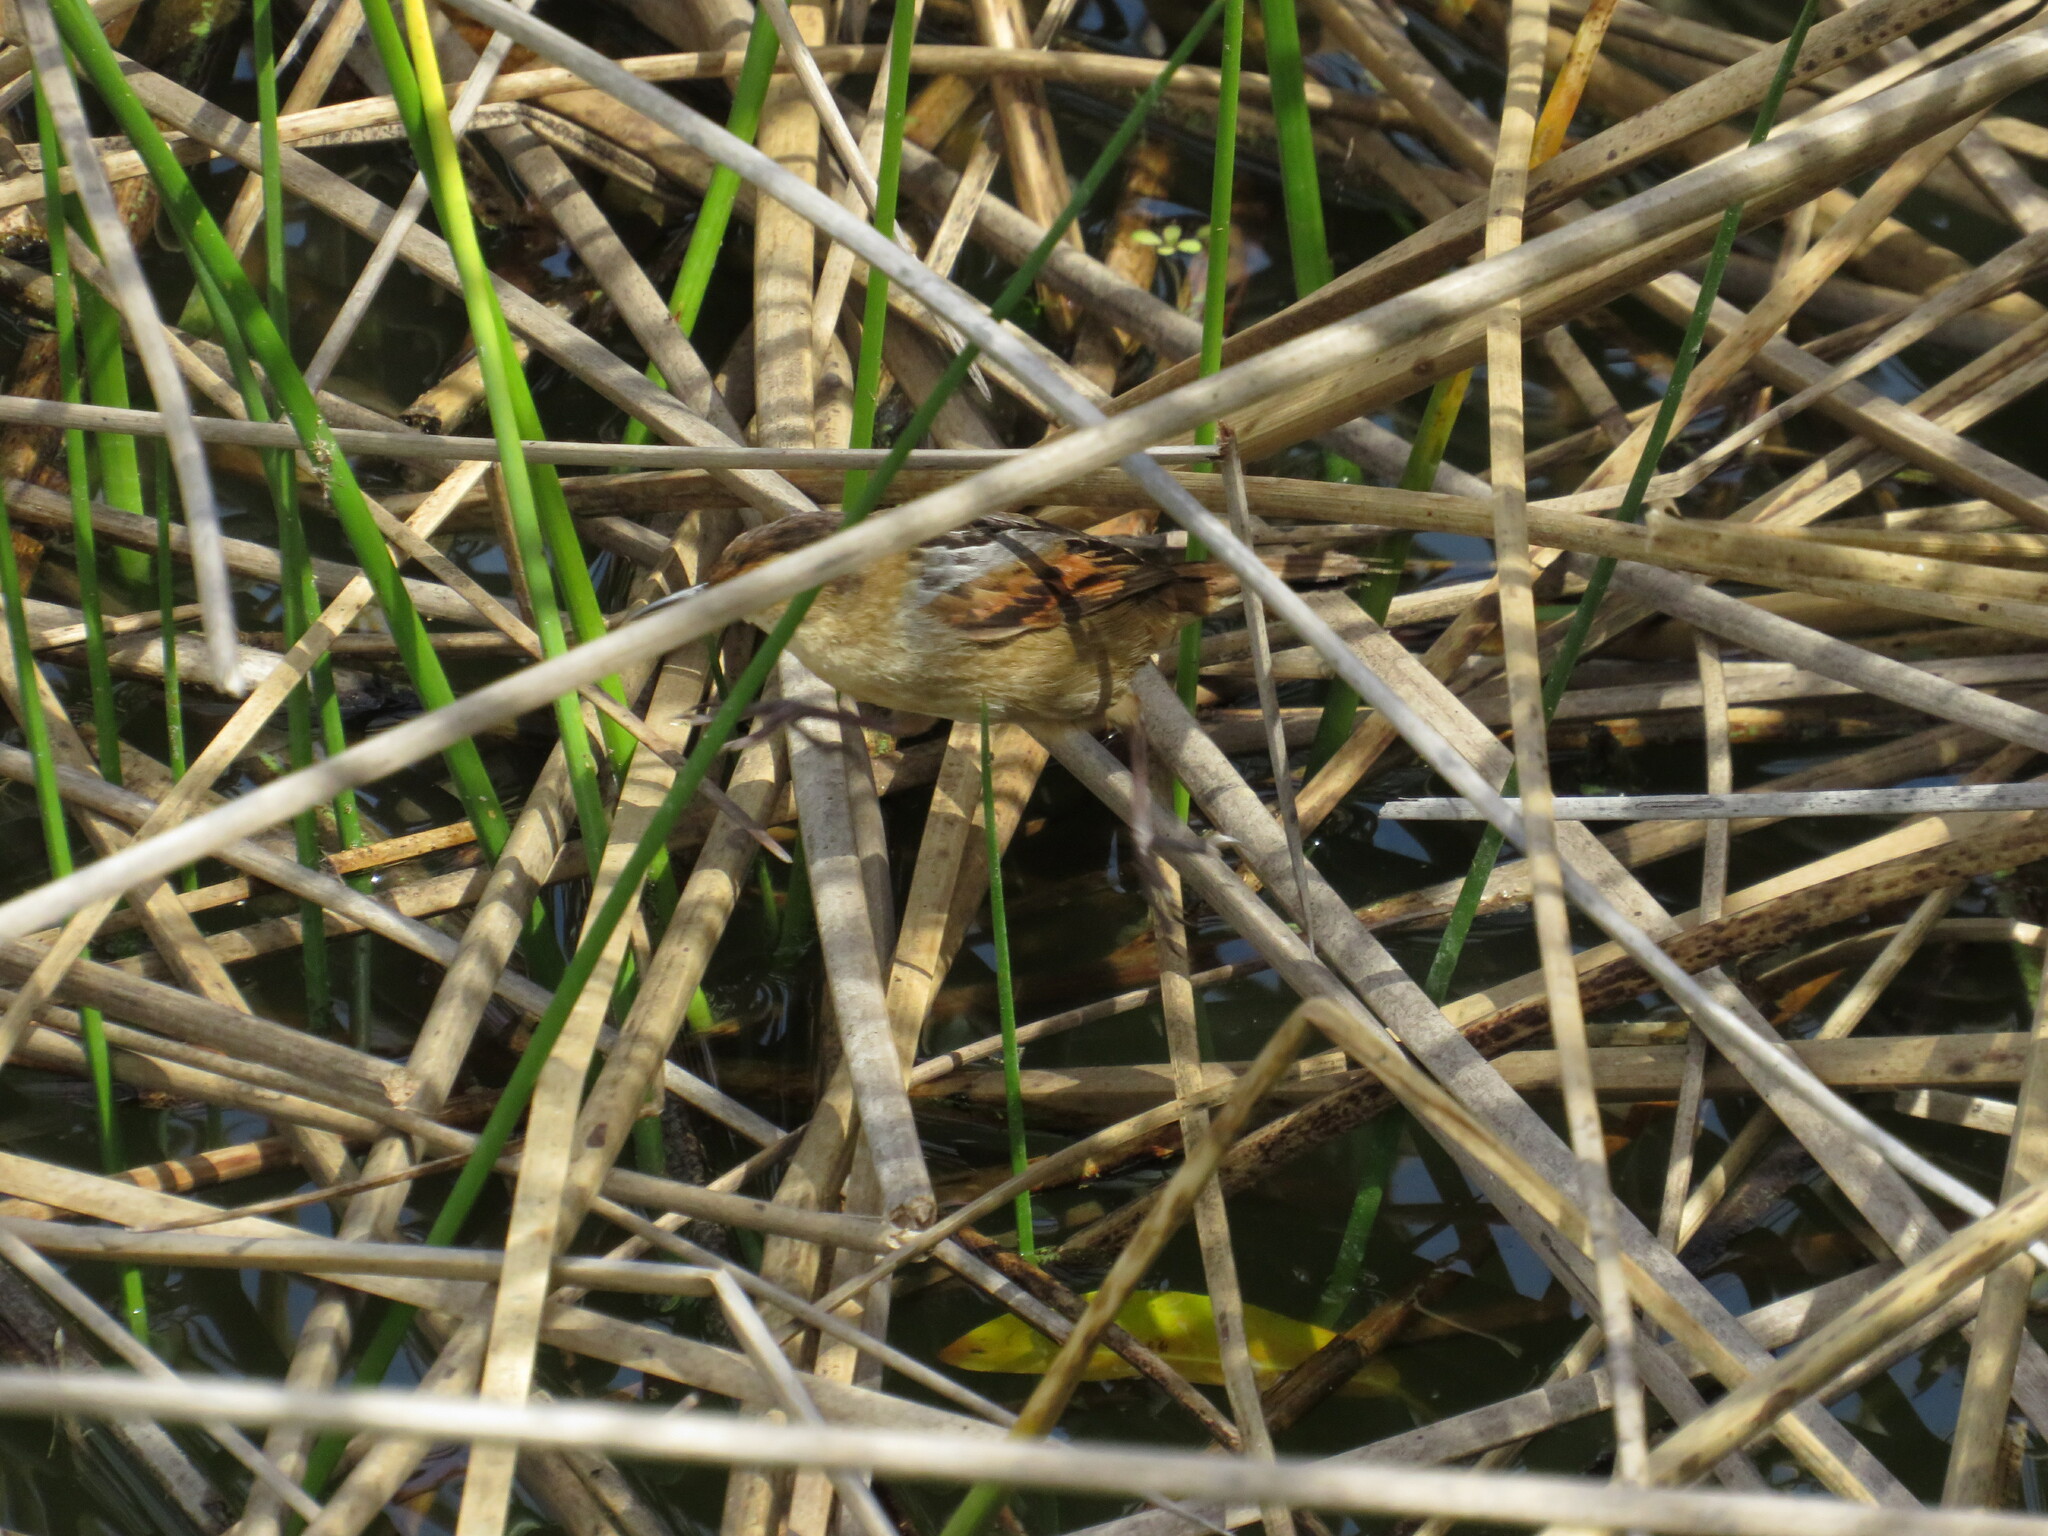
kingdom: Animalia
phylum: Chordata
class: Aves
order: Passeriformes
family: Furnariidae
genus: Phleocryptes
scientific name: Phleocryptes melanops
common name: Wren-like rushbird
